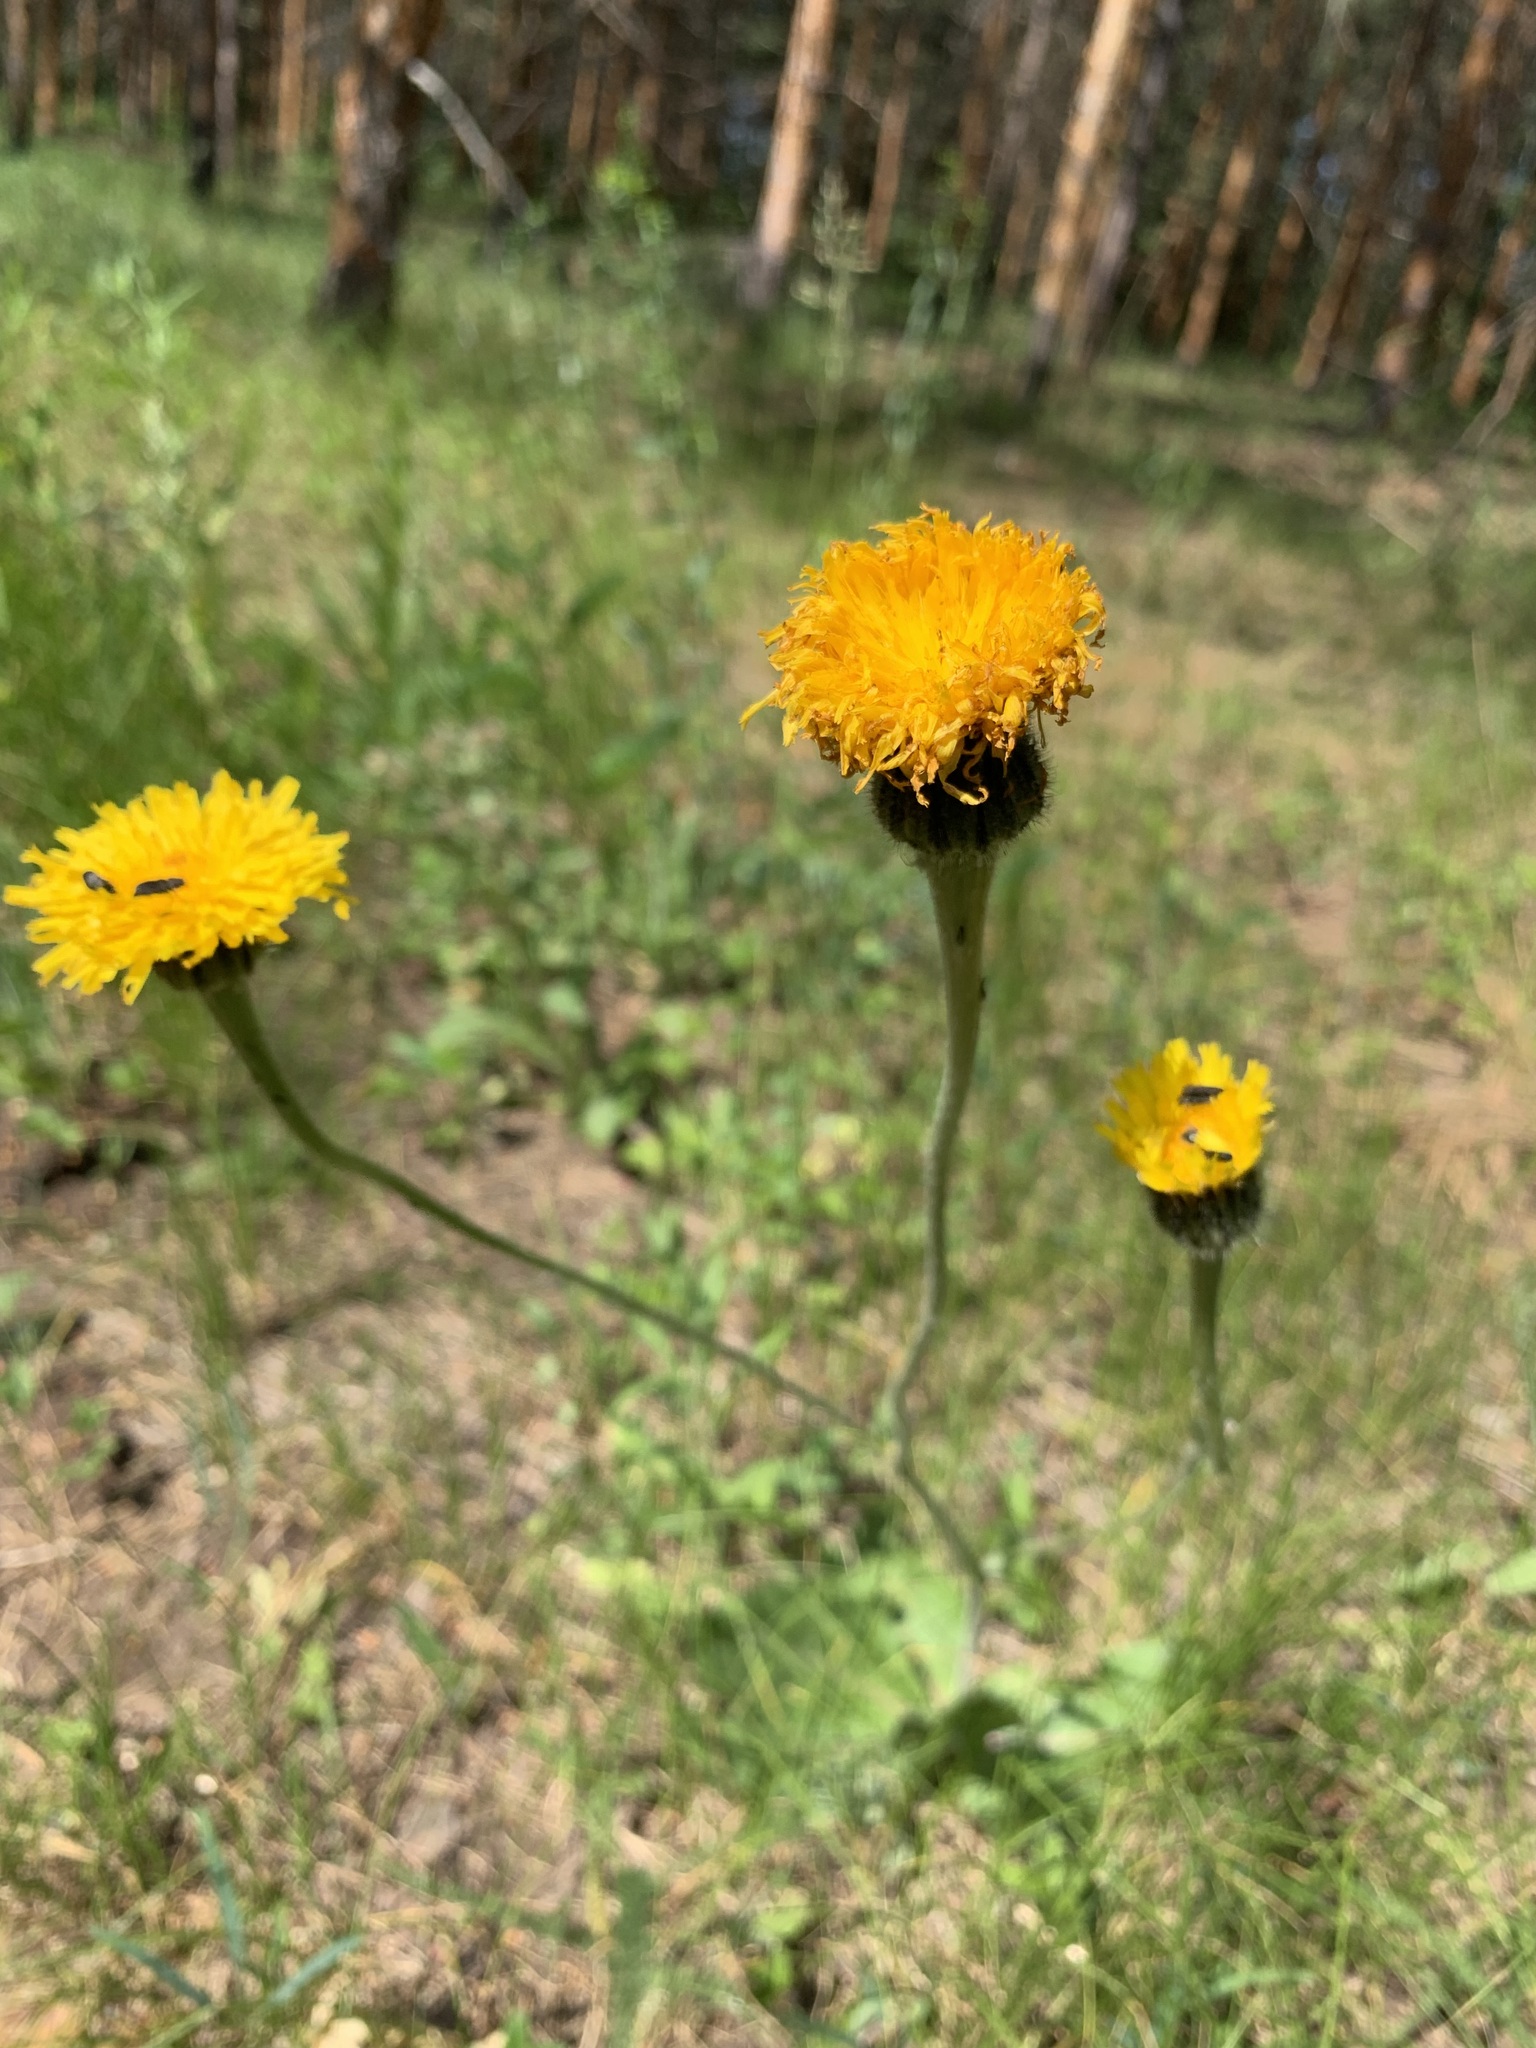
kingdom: Plantae
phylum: Tracheophyta
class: Magnoliopsida
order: Asterales
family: Asteraceae
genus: Trommsdorffia
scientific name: Trommsdorffia maculata
